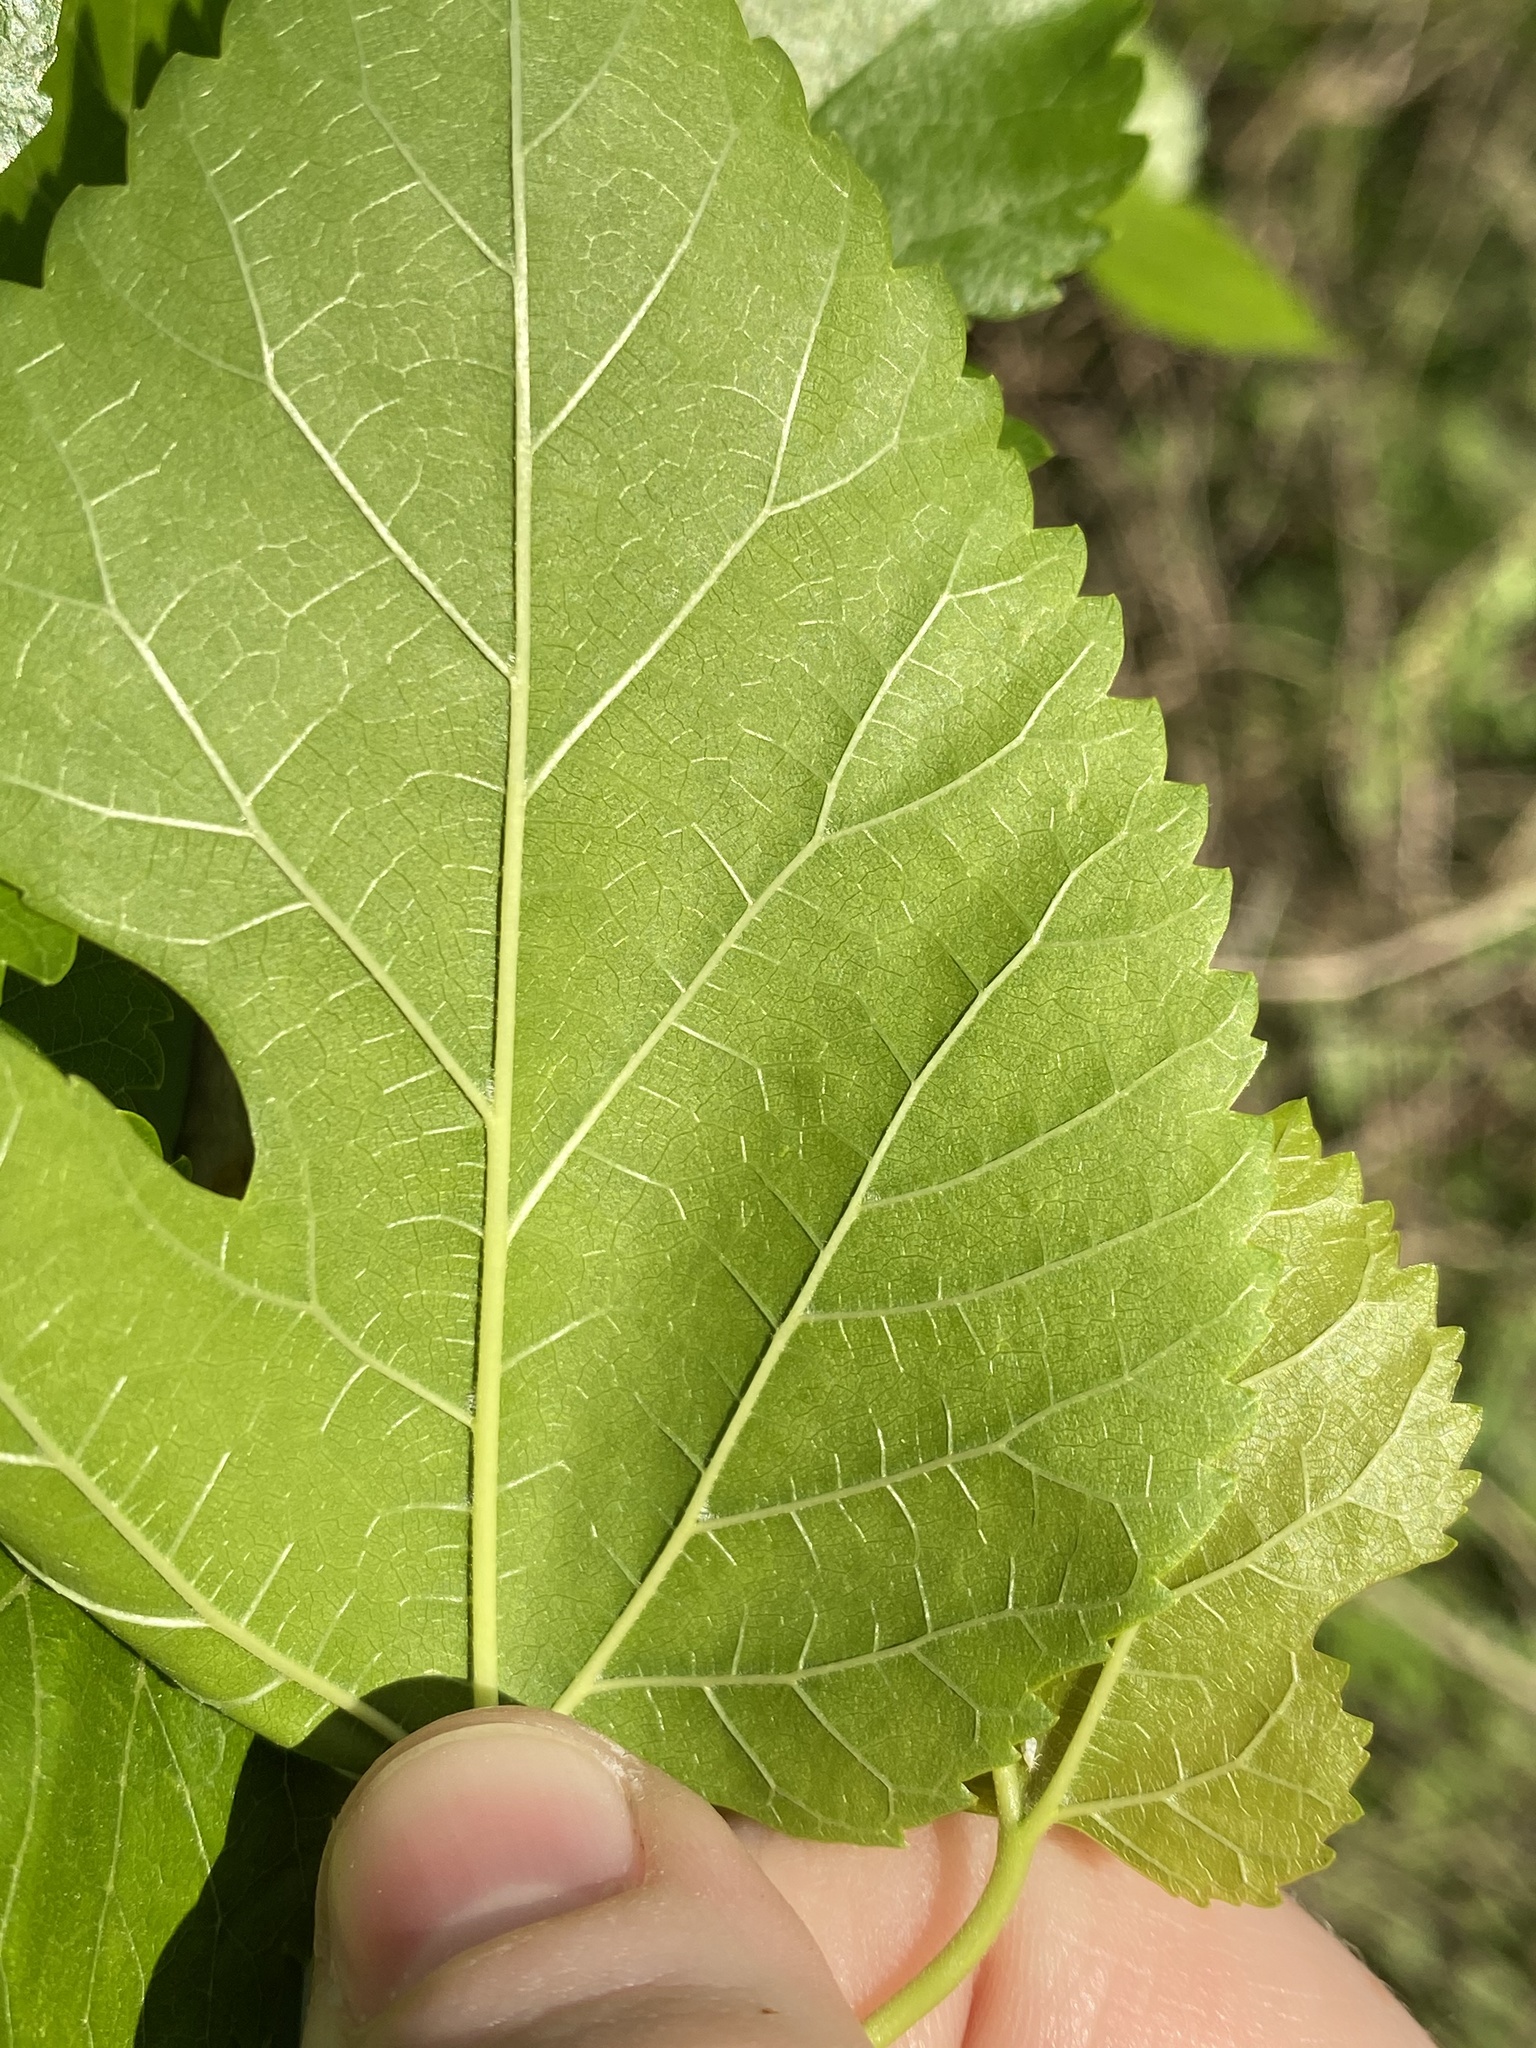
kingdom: Plantae
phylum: Tracheophyta
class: Magnoliopsida
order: Rosales
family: Moraceae
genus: Morus
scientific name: Morus alba
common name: White mulberry
